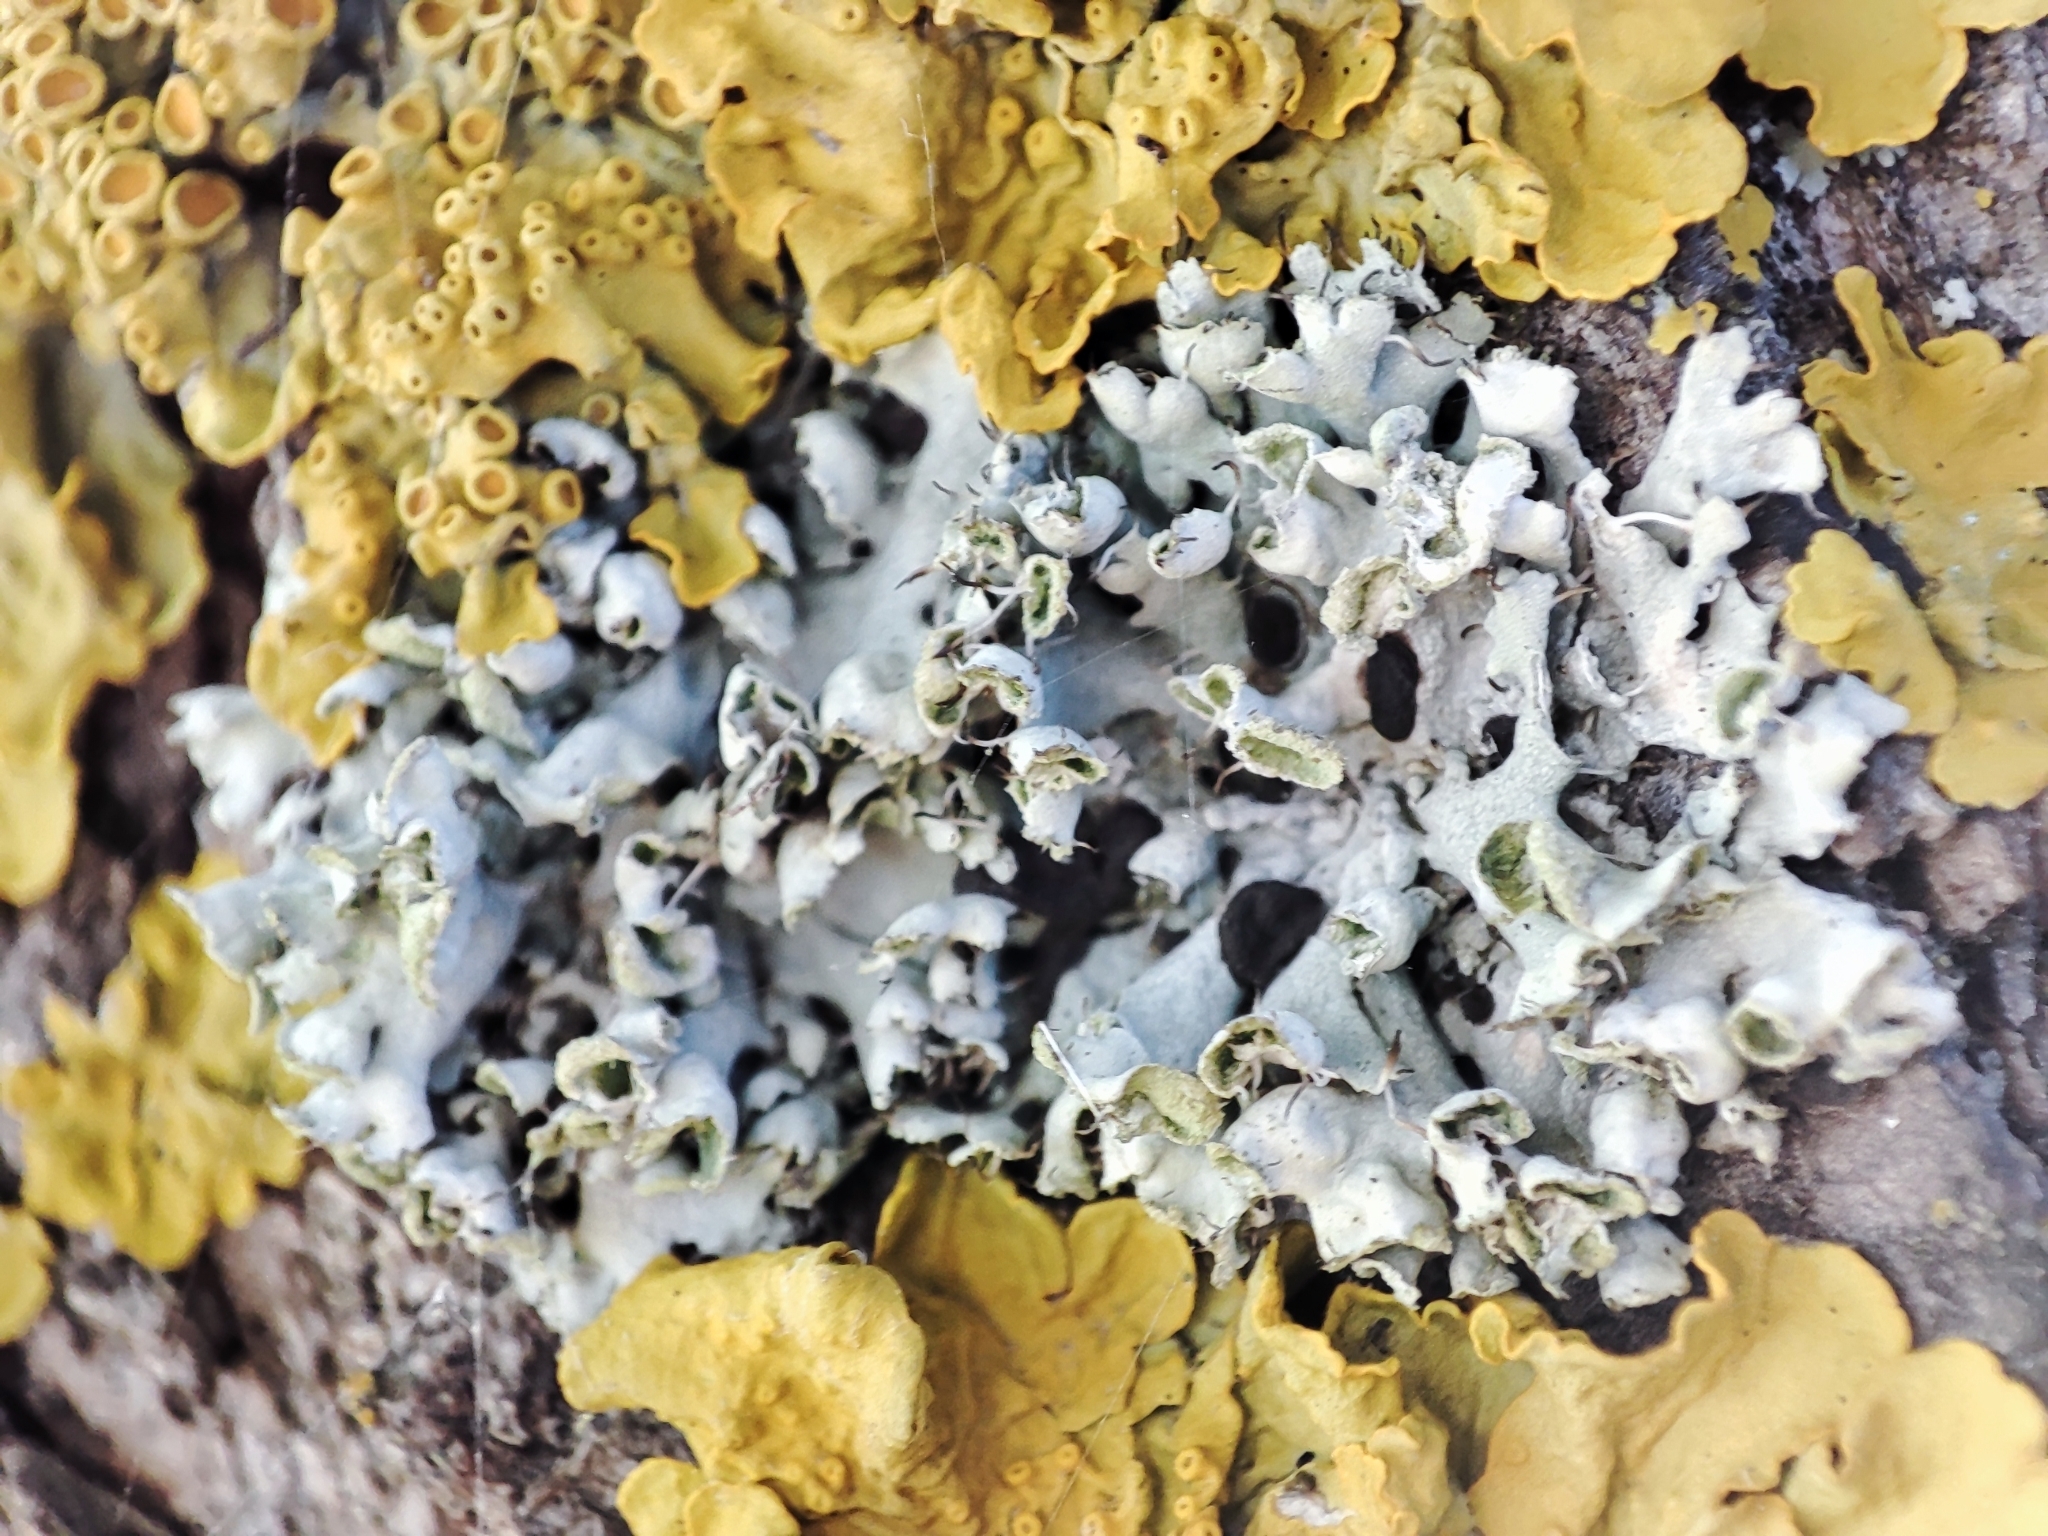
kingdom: Fungi
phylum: Ascomycota
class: Lecanoromycetes
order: Caliciales
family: Physciaceae
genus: Physcia
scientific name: Physcia adscendens
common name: Hooded rosette lichen
